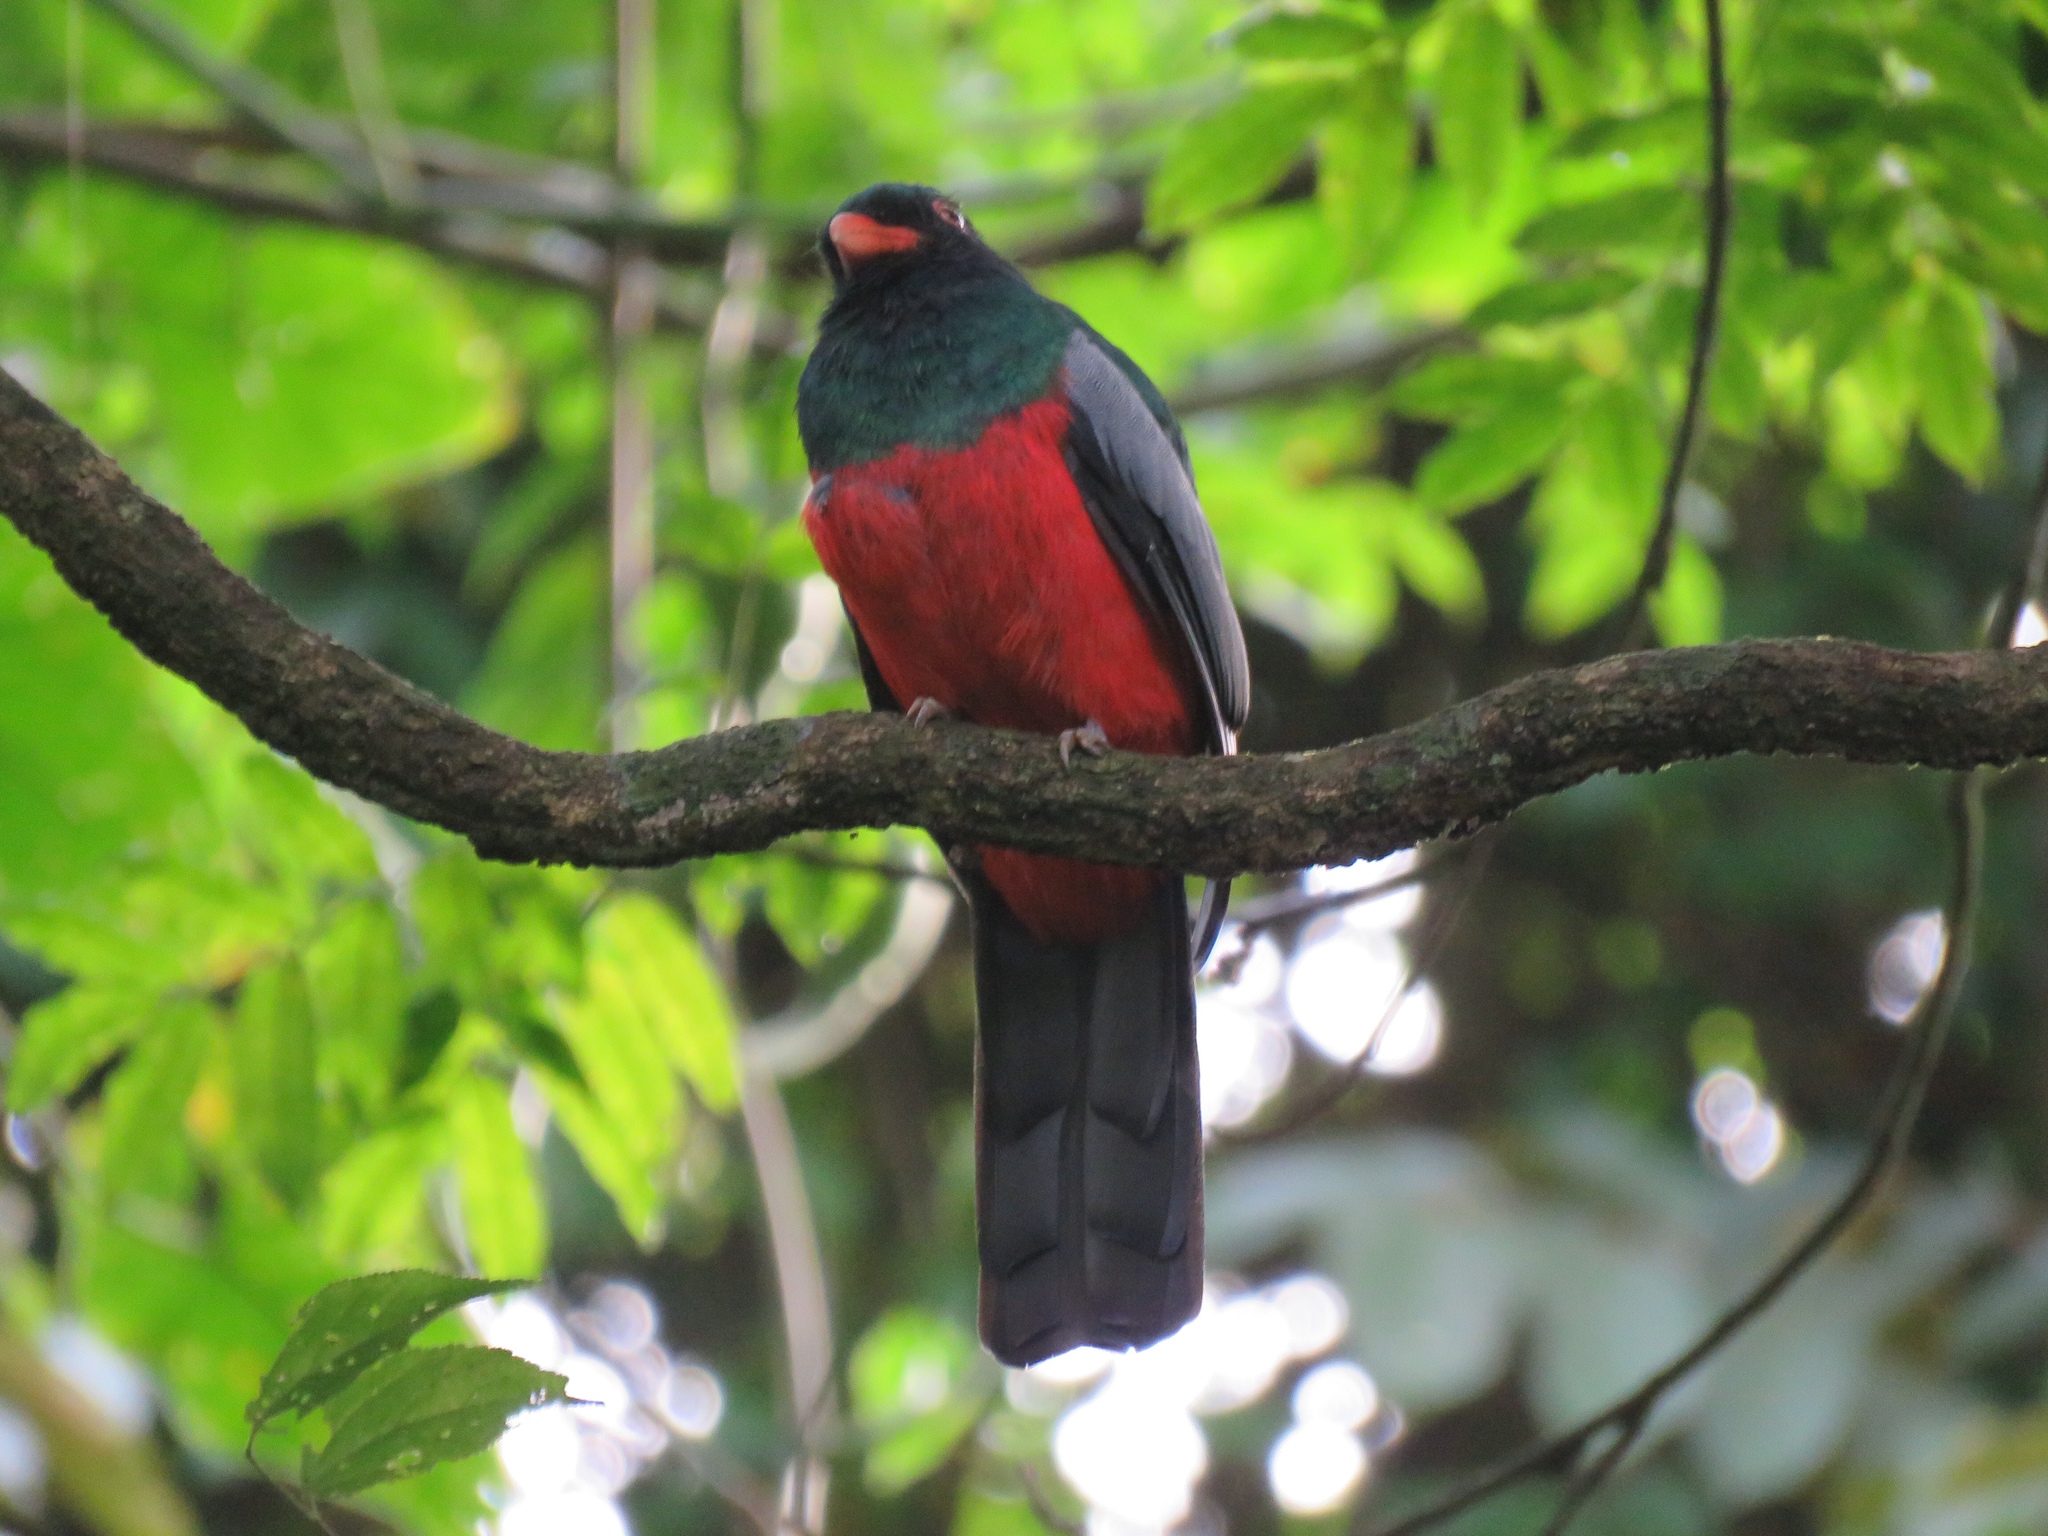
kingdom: Animalia
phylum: Chordata
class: Aves
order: Trogoniformes
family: Trogonidae
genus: Trogon
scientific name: Trogon massena
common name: Slaty-tailed trogon
